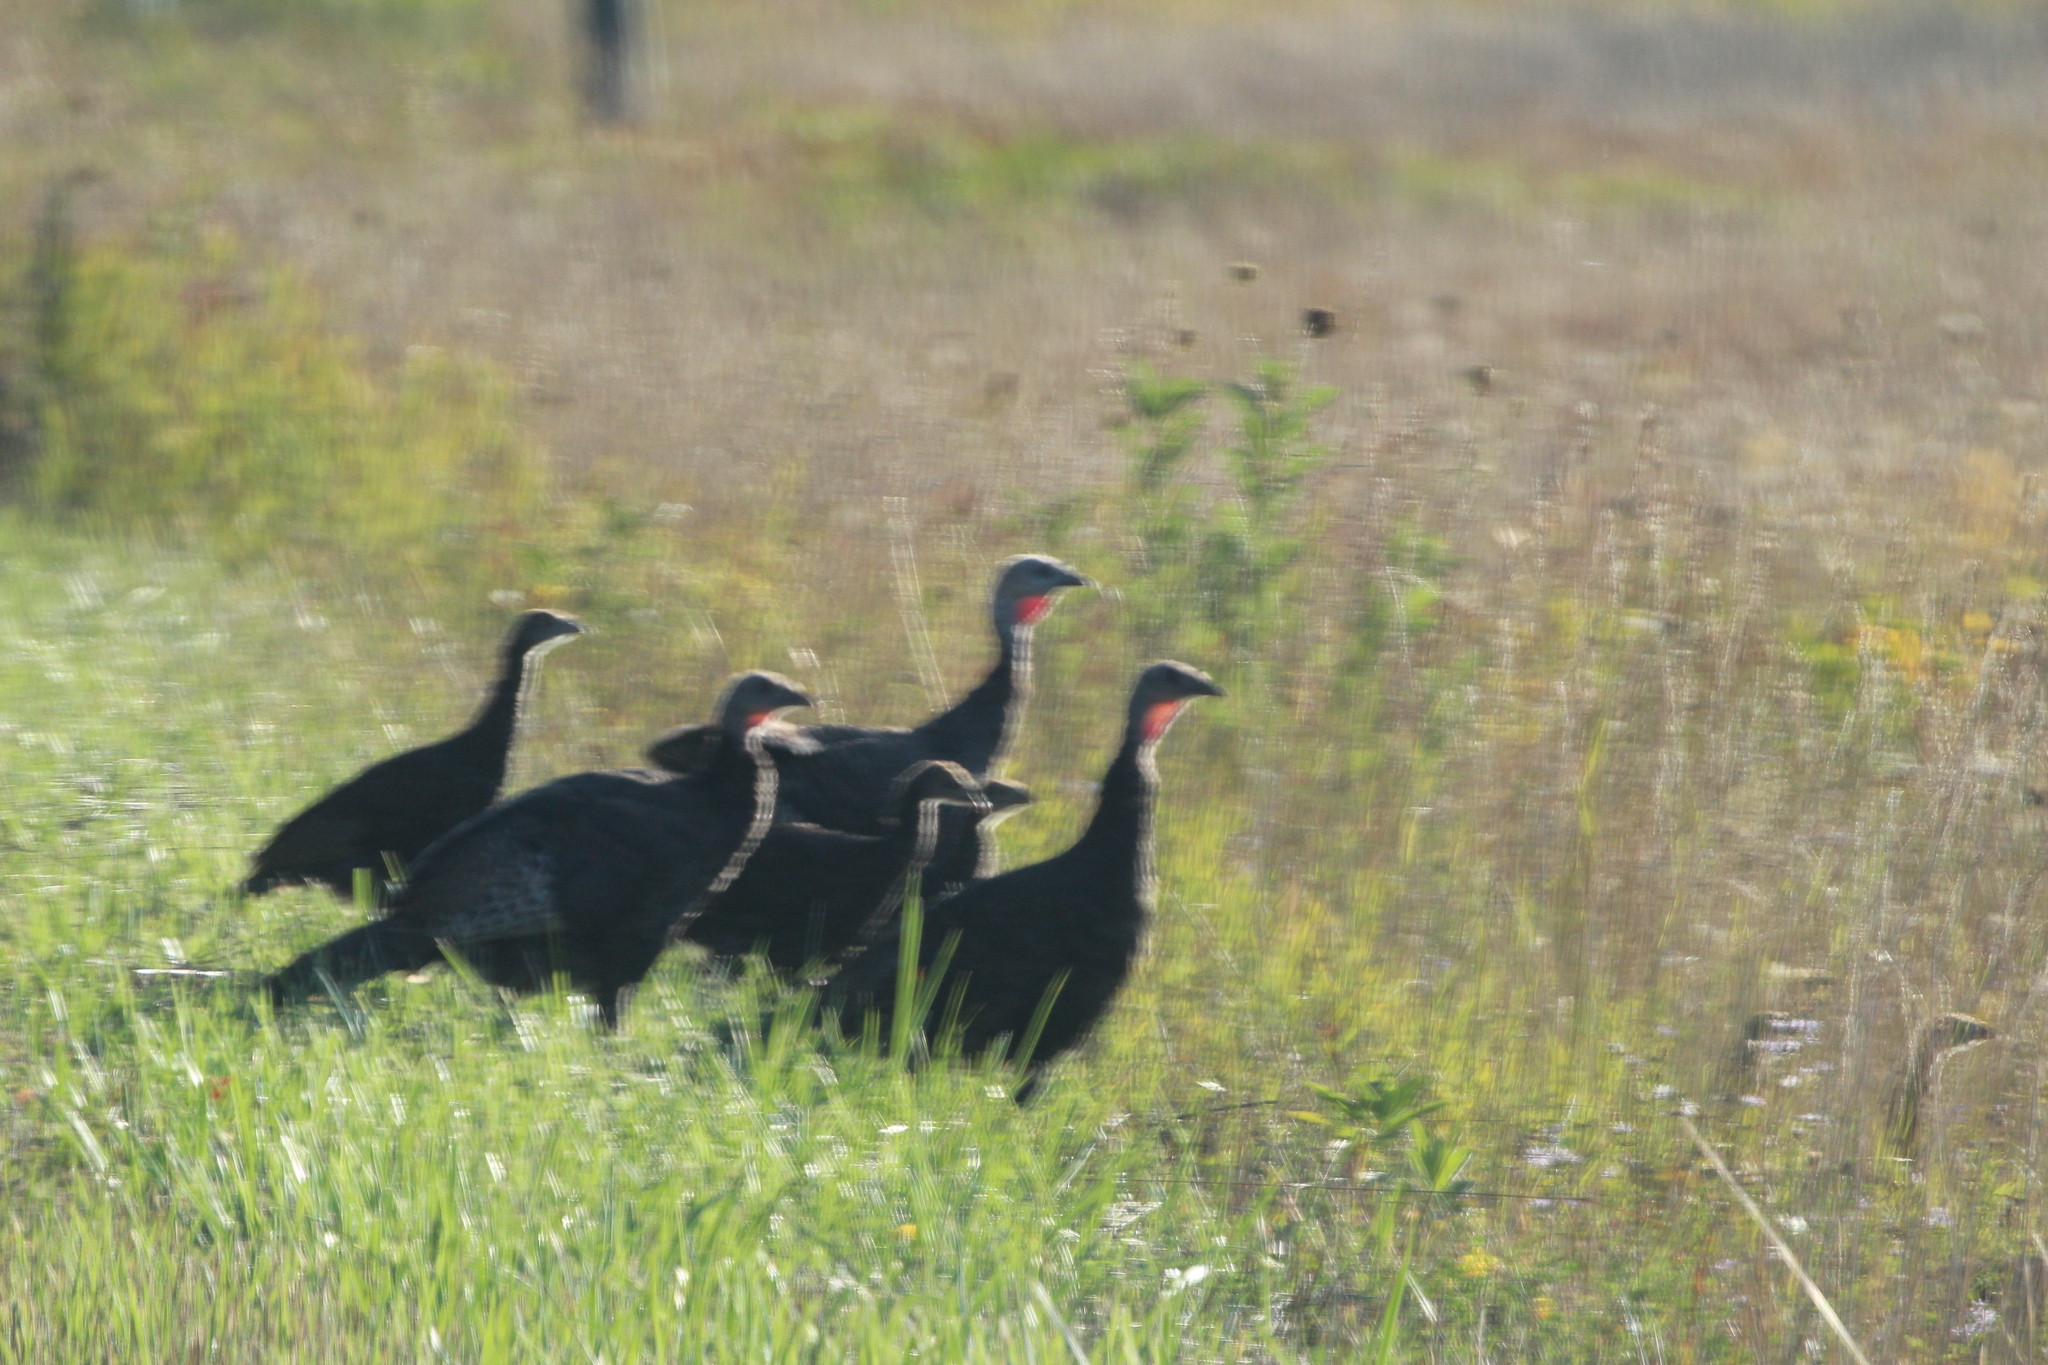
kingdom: Animalia
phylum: Chordata
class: Aves
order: Galliformes
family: Phasianidae
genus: Meleagris
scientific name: Meleagris gallopavo
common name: Wild turkey
